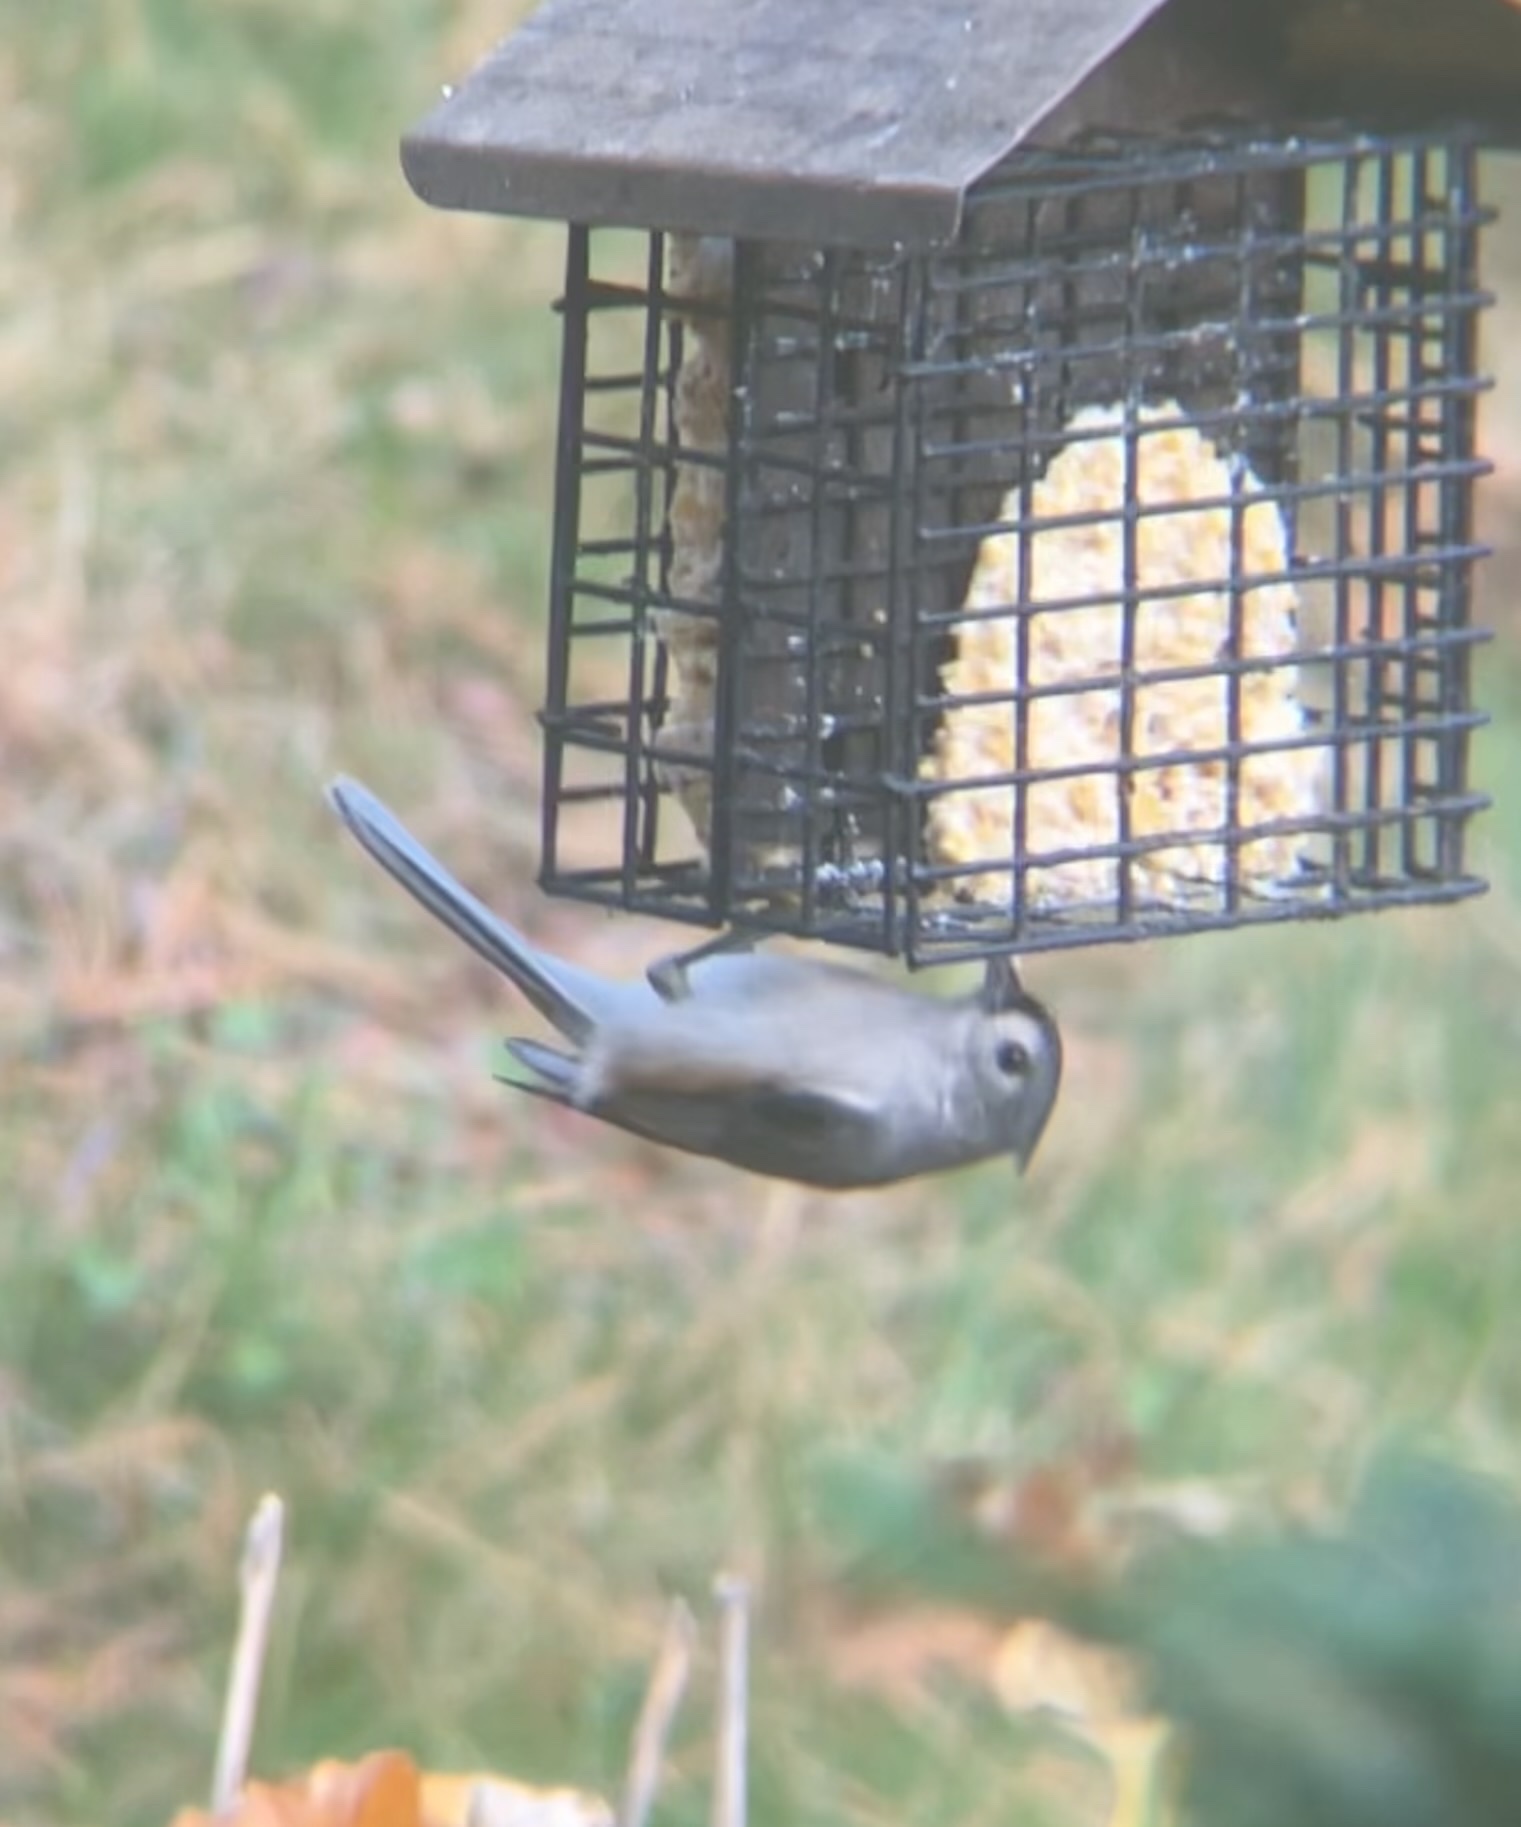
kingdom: Animalia
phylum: Chordata
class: Aves
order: Passeriformes
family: Paridae
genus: Baeolophus
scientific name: Baeolophus bicolor
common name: Tufted titmouse
